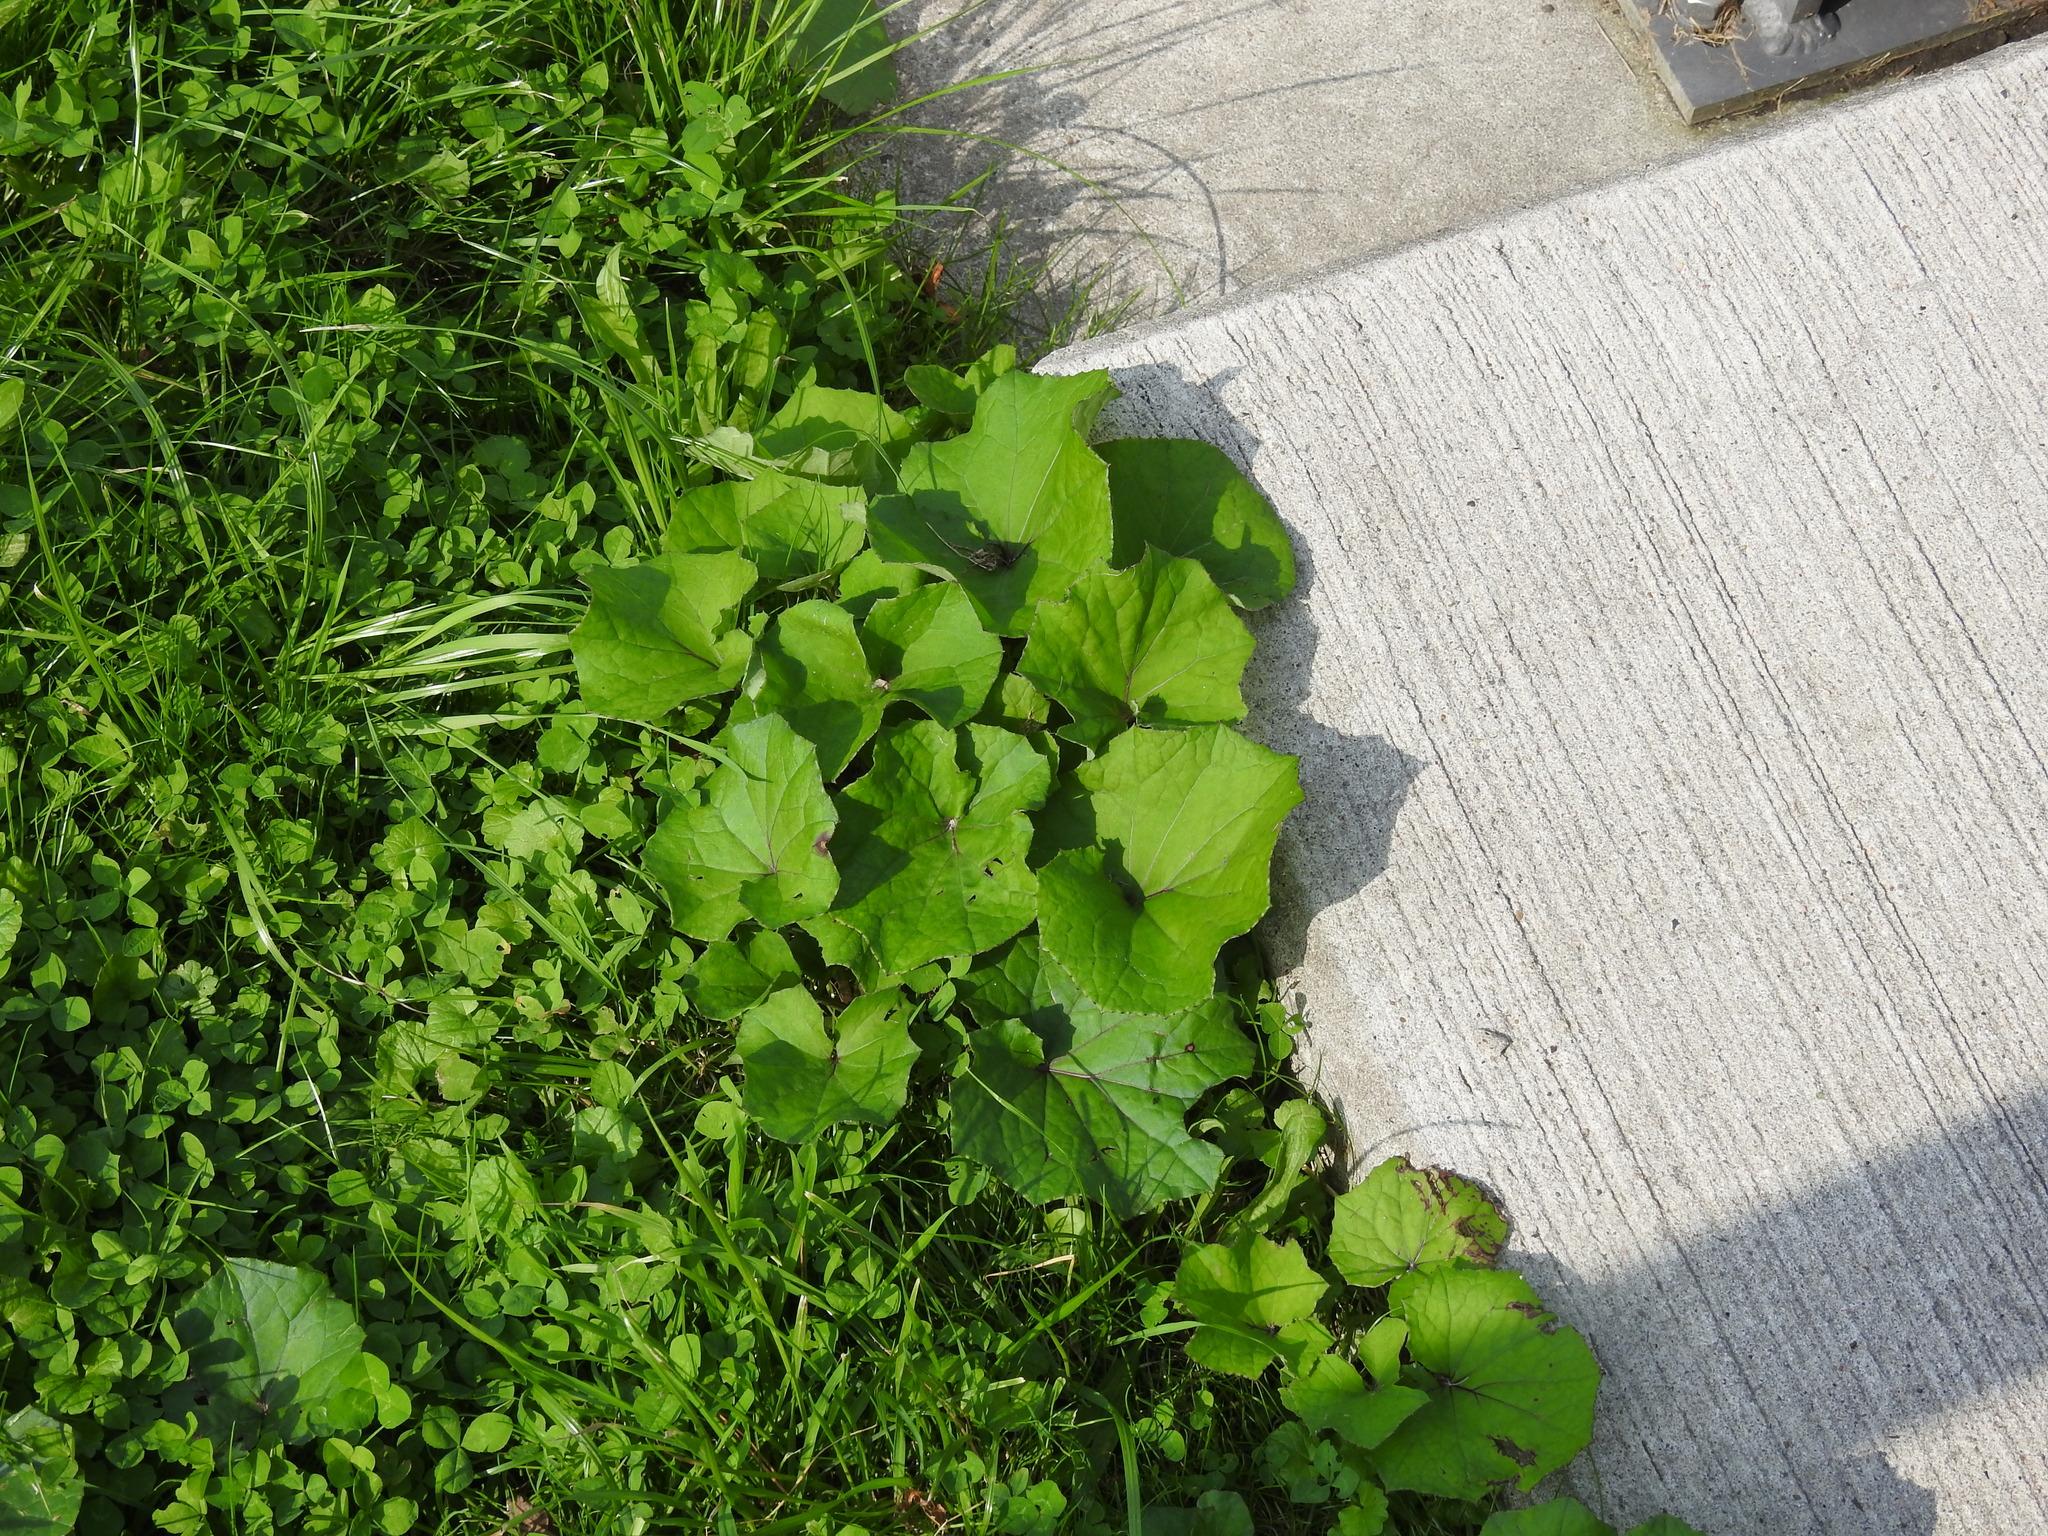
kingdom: Plantae
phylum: Tracheophyta
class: Magnoliopsida
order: Asterales
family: Asteraceae
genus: Tussilago
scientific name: Tussilago farfara
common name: Coltsfoot
